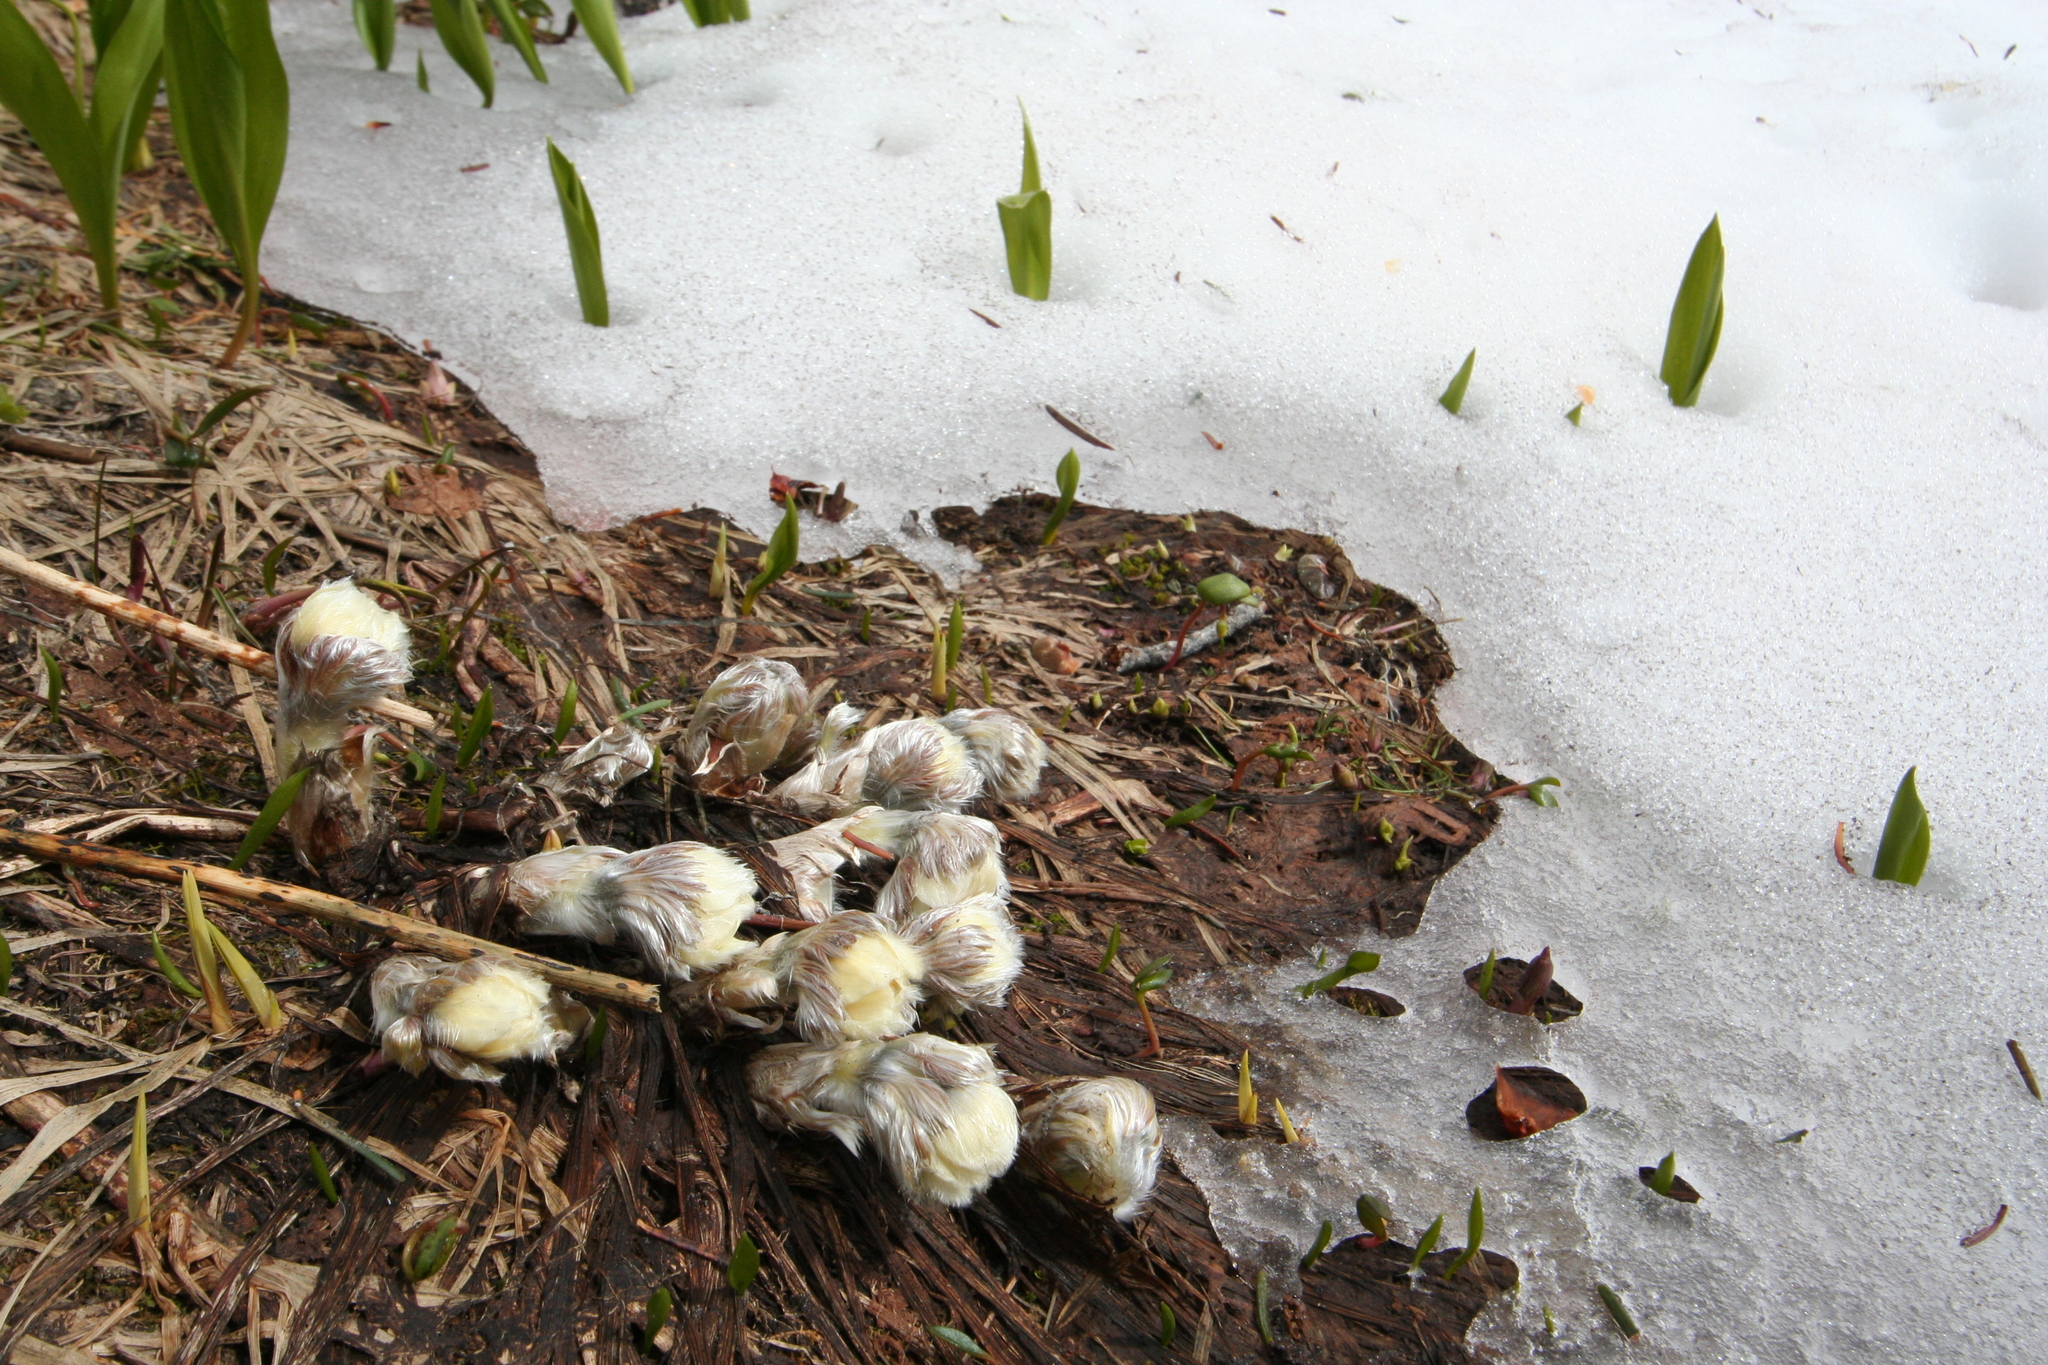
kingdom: Plantae
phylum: Tracheophyta
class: Magnoliopsida
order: Ranunculales
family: Ranunculaceae
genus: Pulsatilla
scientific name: Pulsatilla occidentalis
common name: Mountain pasqueflower
